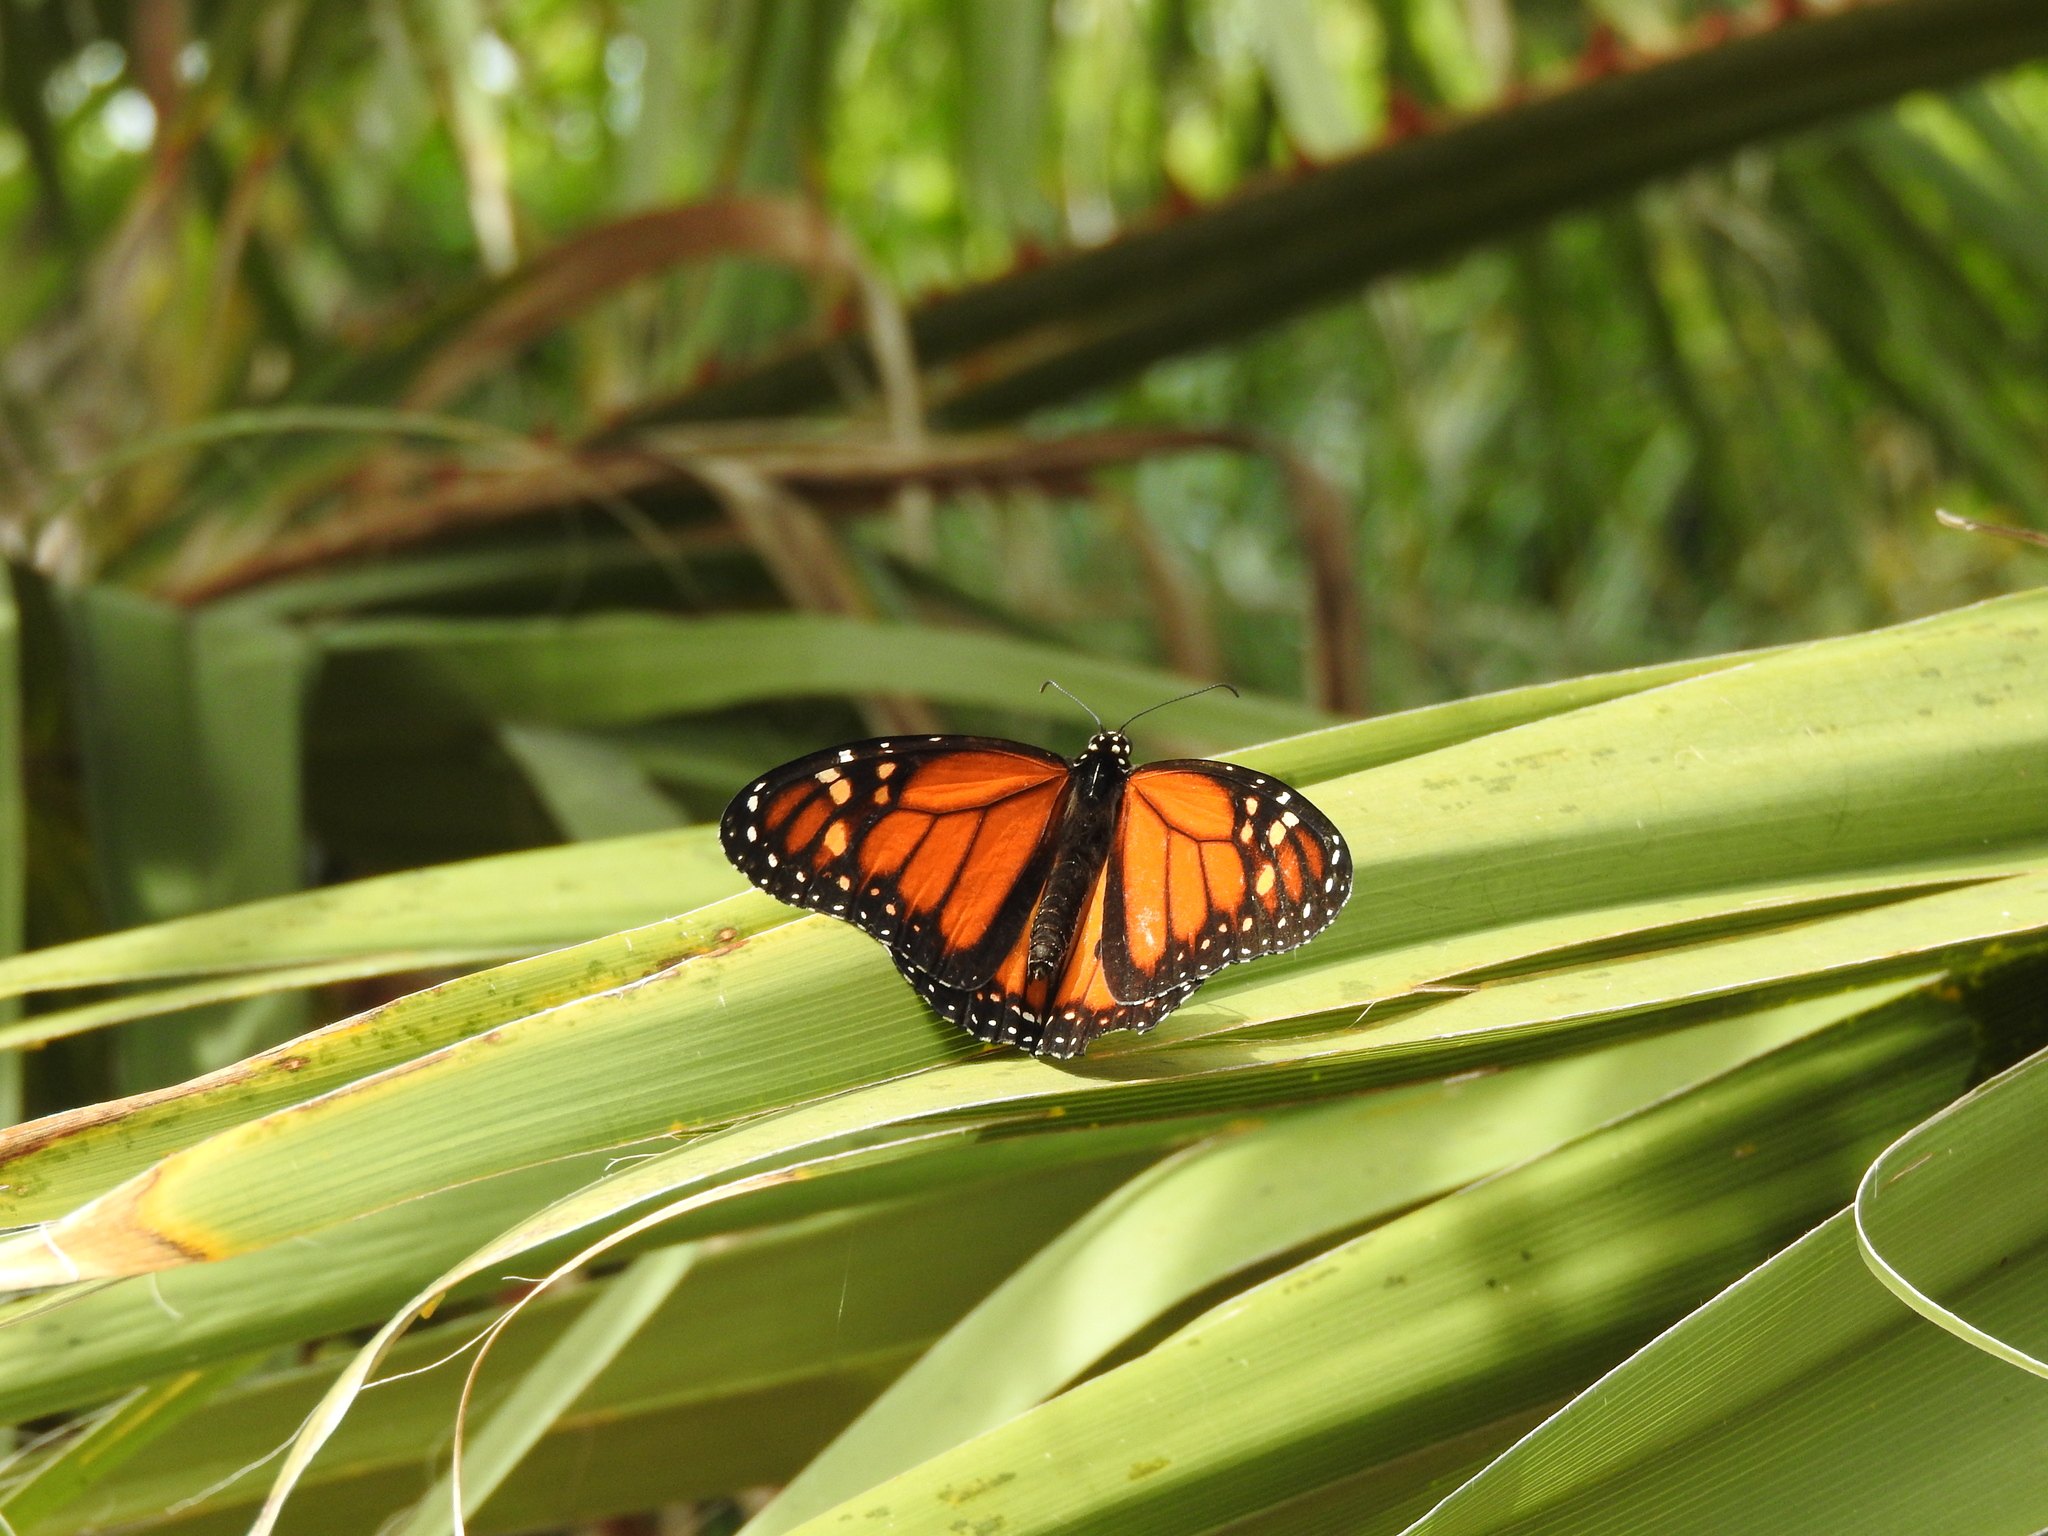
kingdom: Animalia
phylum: Arthropoda
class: Insecta
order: Lepidoptera
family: Nymphalidae
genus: Danaus
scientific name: Danaus plexippus
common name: Monarch
